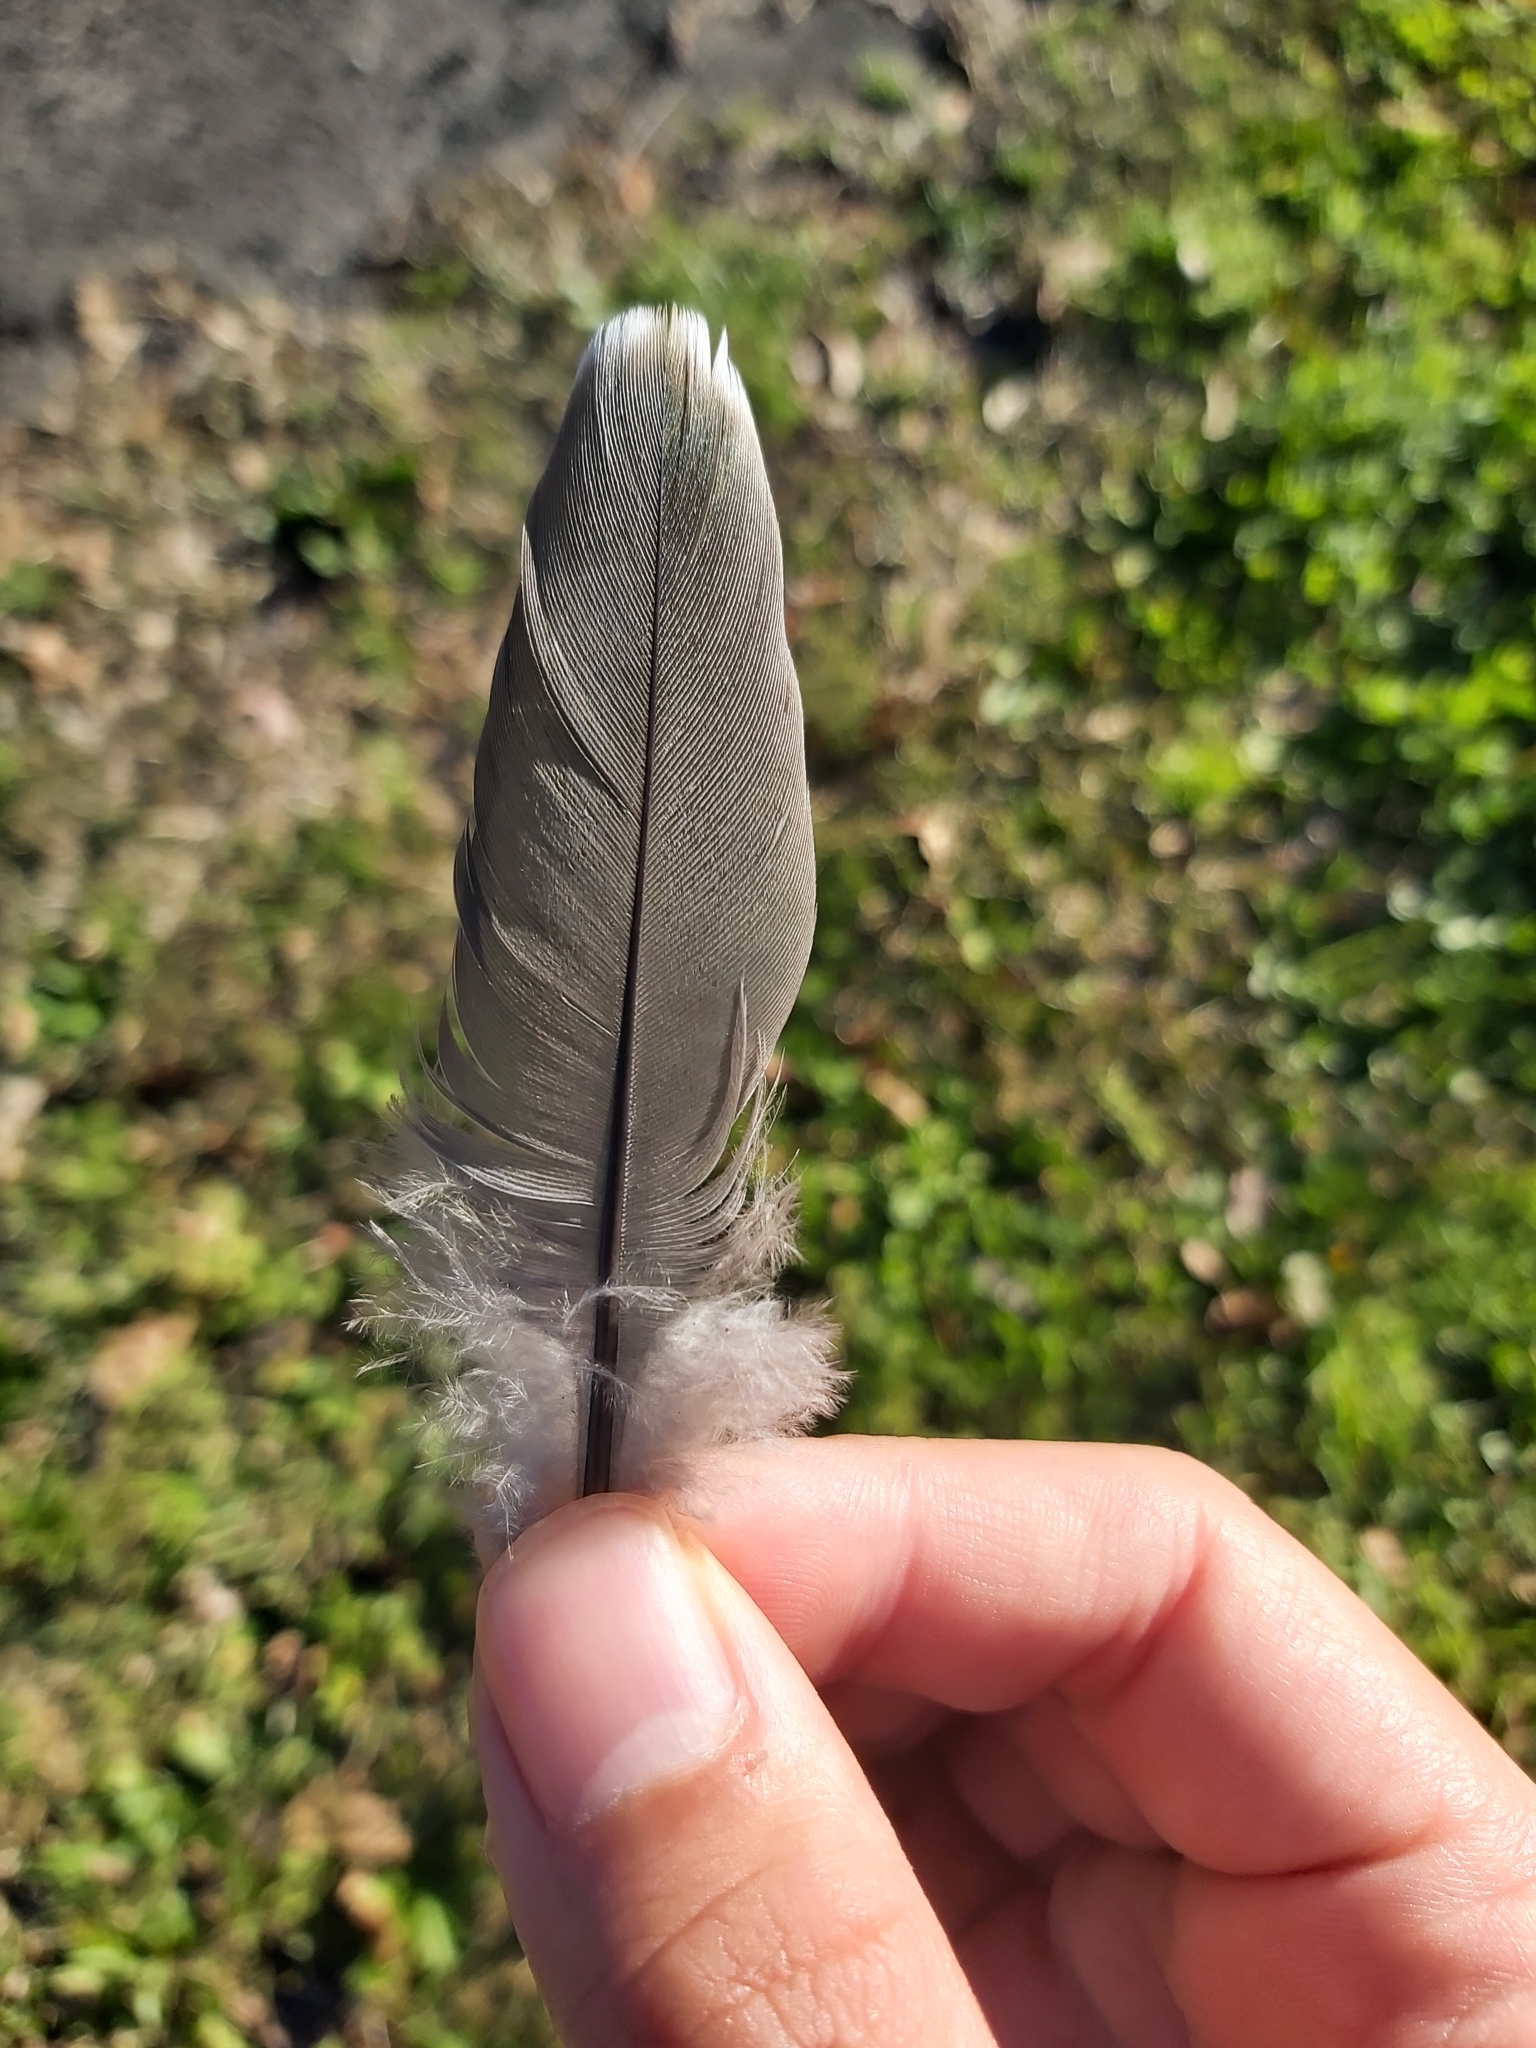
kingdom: Animalia
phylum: Chordata
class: Aves
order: Columbiformes
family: Columbidae
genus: Ocyphaps
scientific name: Ocyphaps lophotes
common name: Crested pigeon
